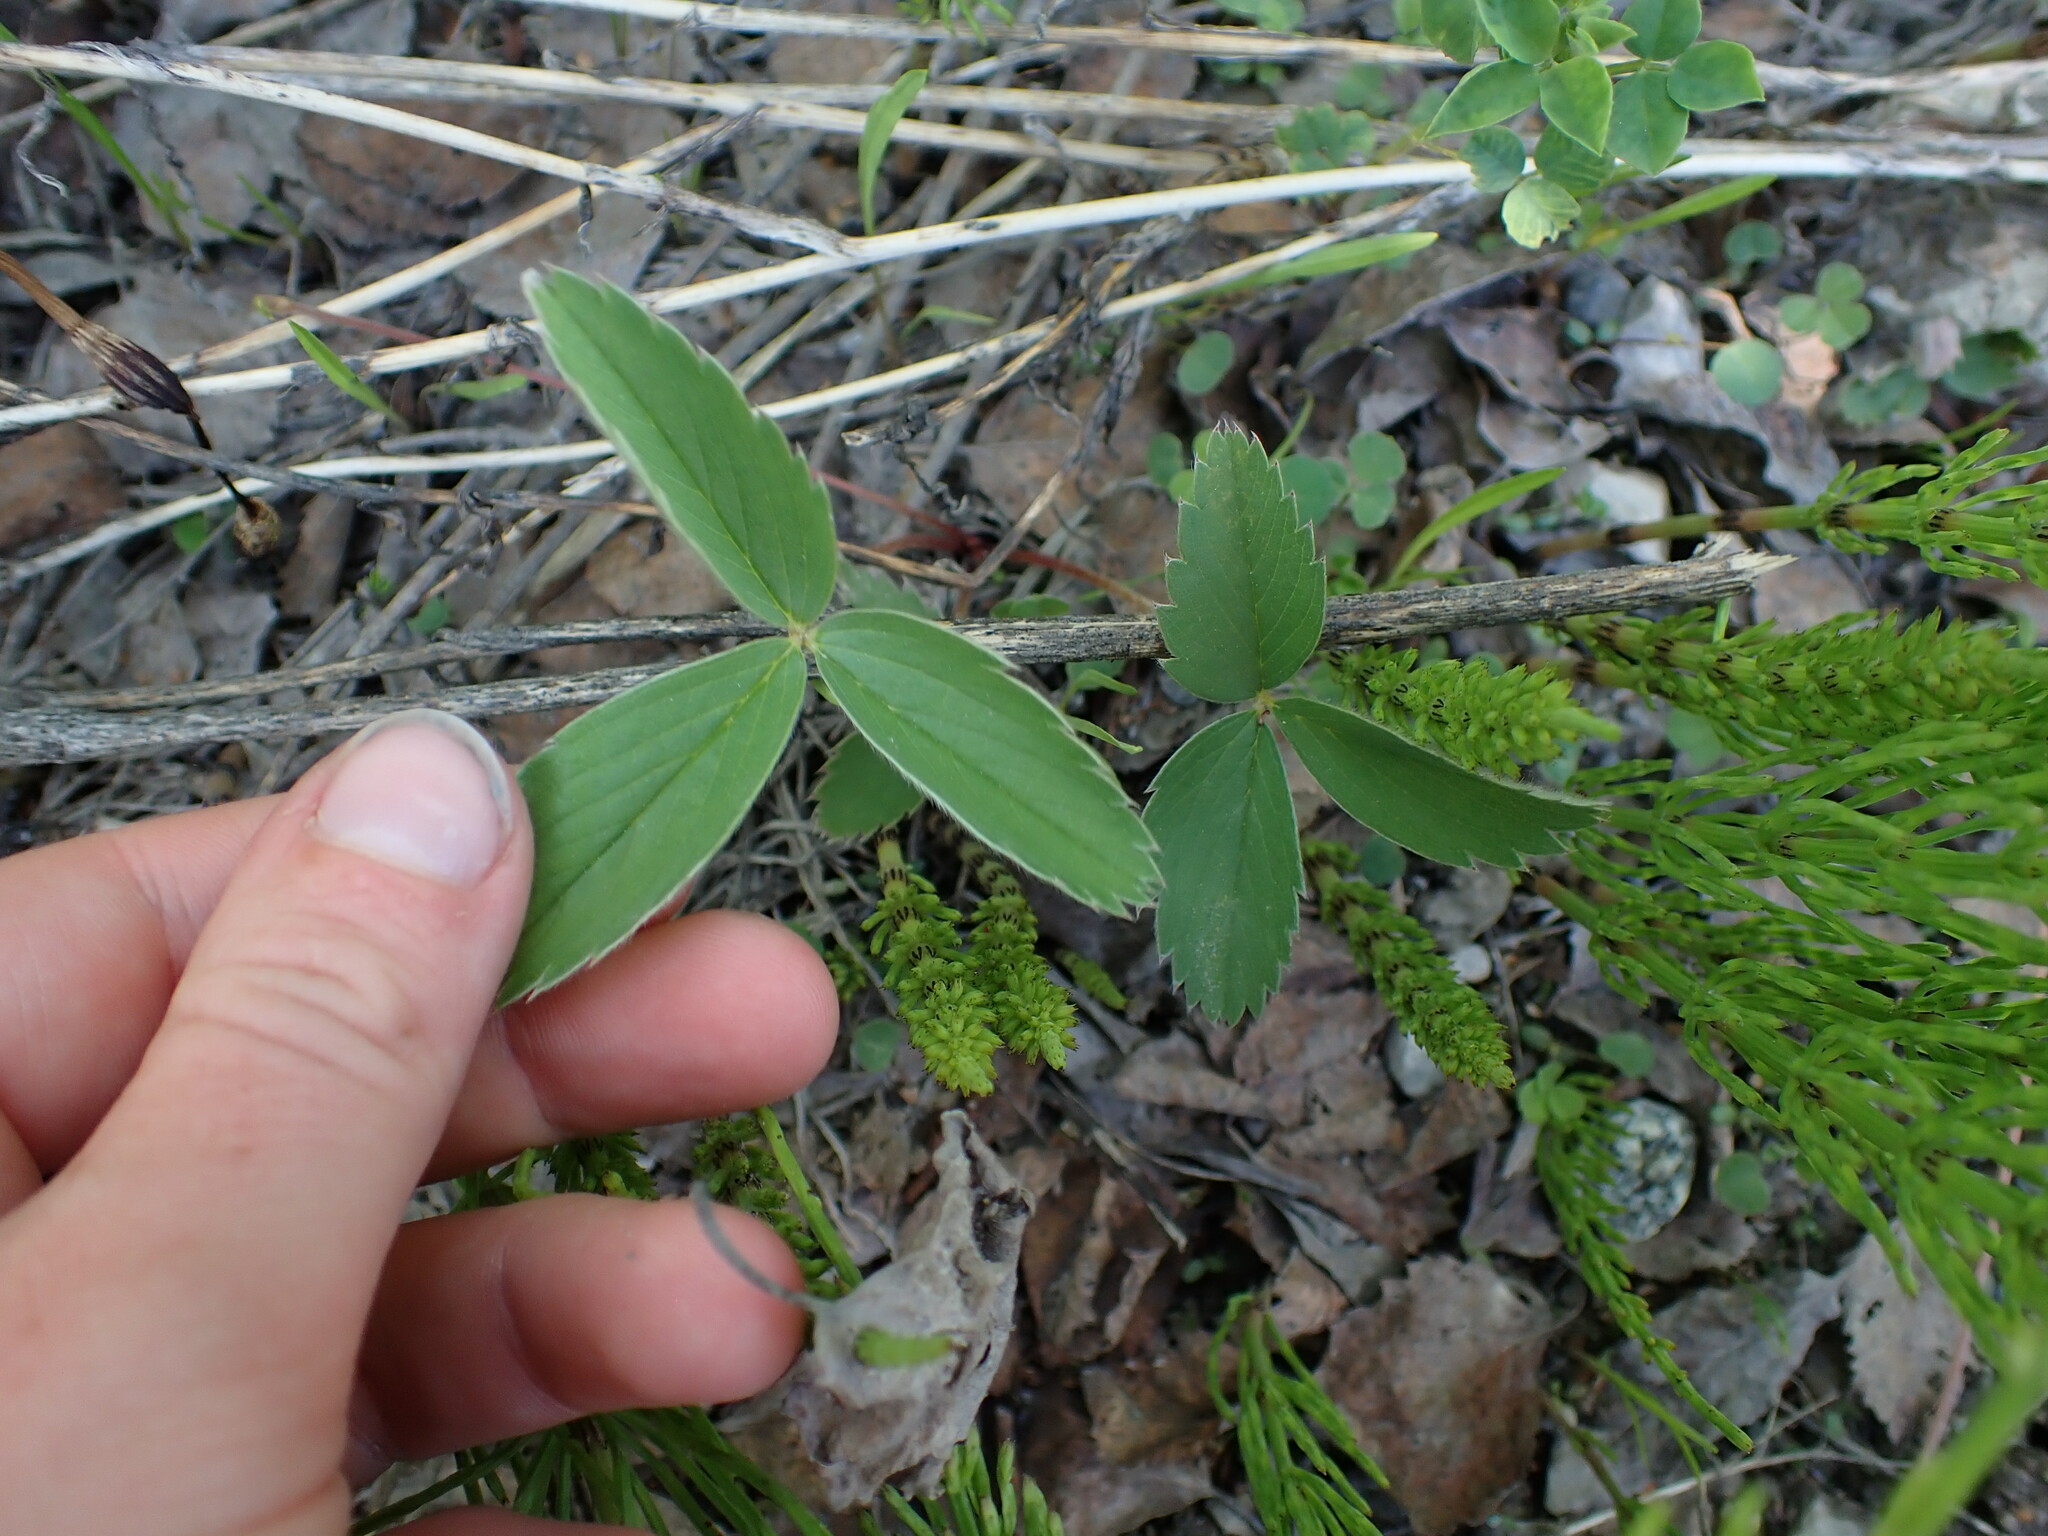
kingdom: Plantae
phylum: Tracheophyta
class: Magnoliopsida
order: Rosales
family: Rosaceae
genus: Fragaria
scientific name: Fragaria virginiana
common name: Thickleaved wild strawberry
